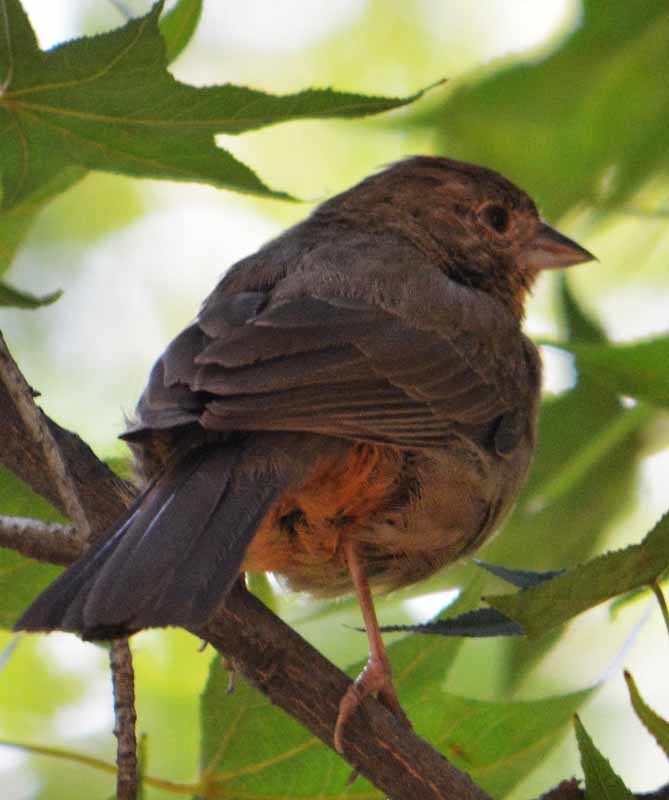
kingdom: Animalia
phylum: Chordata
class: Aves
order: Passeriformes
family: Passerellidae
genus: Melozone
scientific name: Melozone fusca
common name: Canyon towhee
